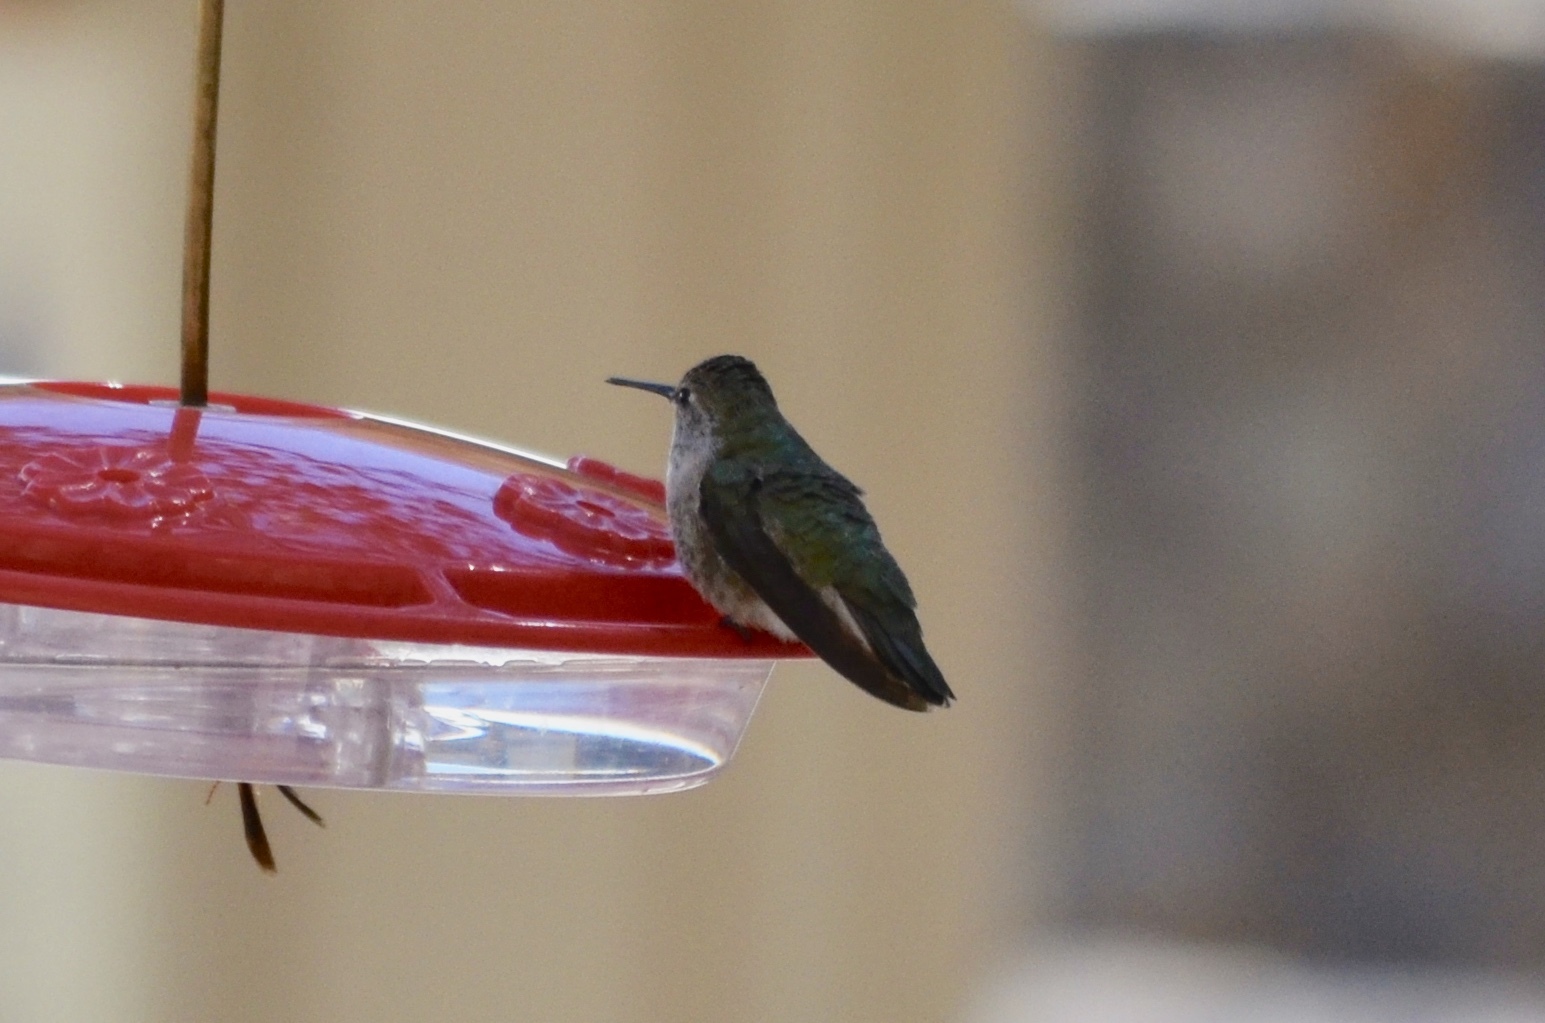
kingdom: Animalia
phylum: Chordata
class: Aves
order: Apodiformes
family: Trochilidae
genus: Calypte
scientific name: Calypte anna
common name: Anna's hummingbird
